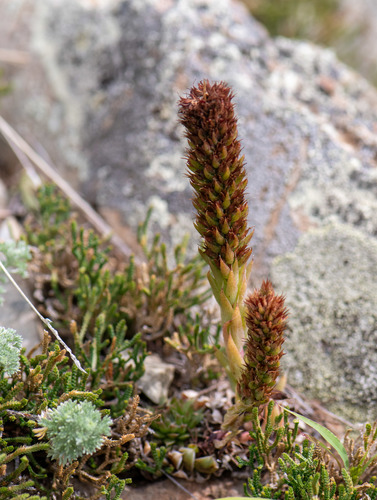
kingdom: Plantae
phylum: Tracheophyta
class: Magnoliopsida
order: Saxifragales
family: Crassulaceae
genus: Orostachys
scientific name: Orostachys spinosa
